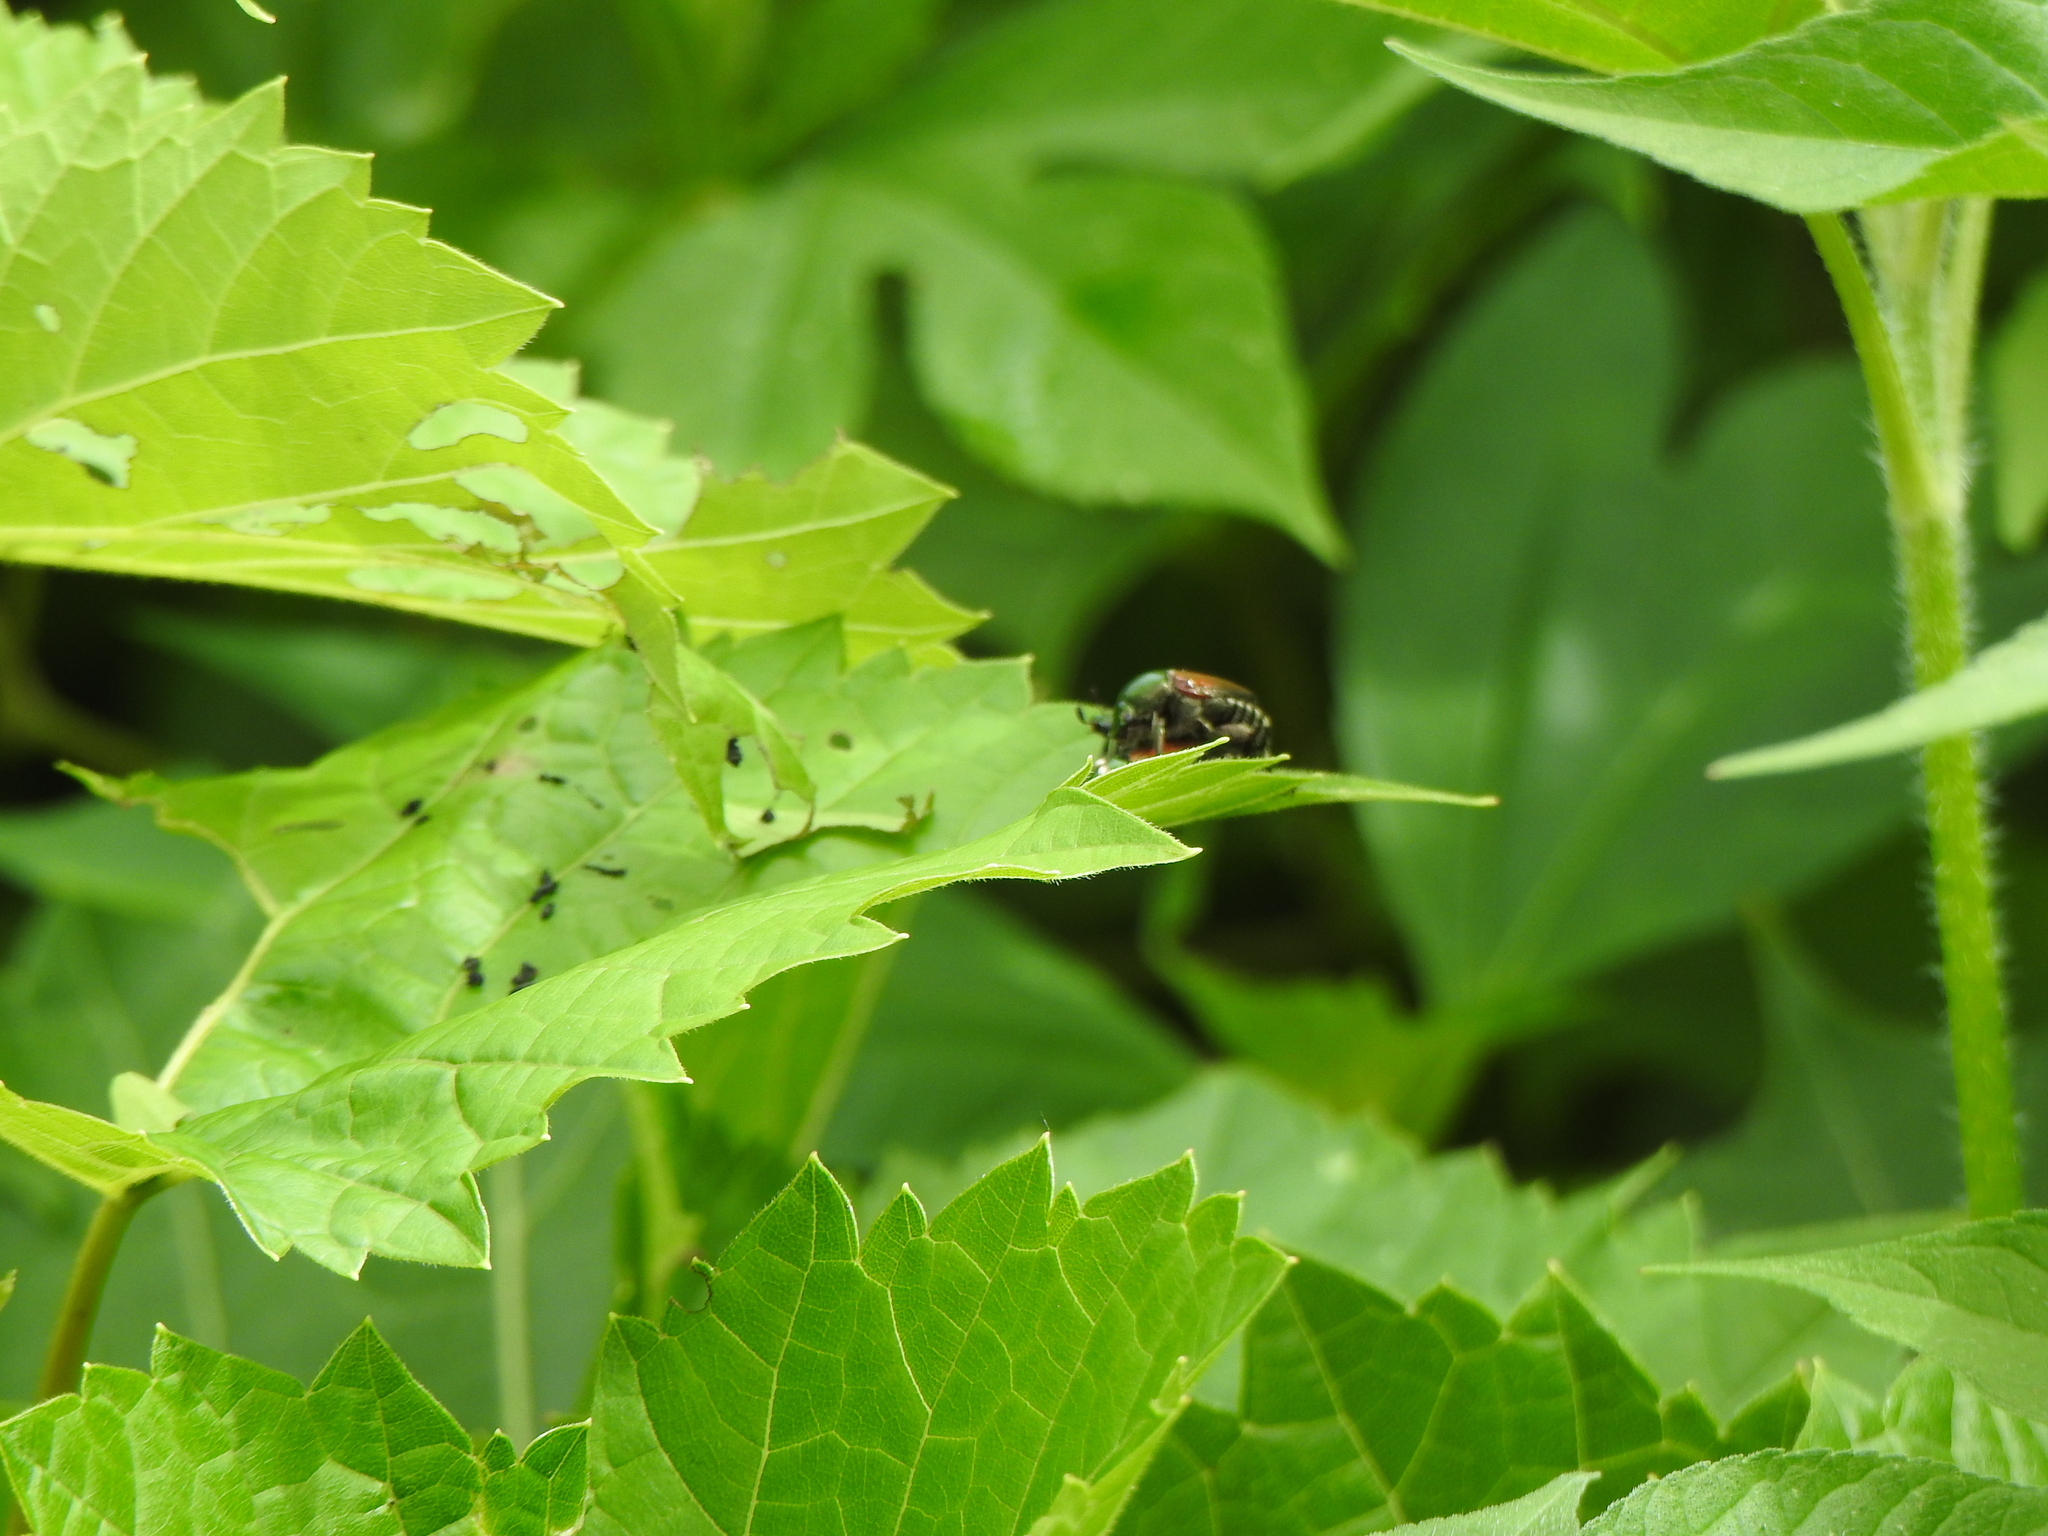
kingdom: Animalia
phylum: Arthropoda
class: Insecta
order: Coleoptera
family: Scarabaeidae
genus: Popillia
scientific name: Popillia japonica
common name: Japanese beetle
